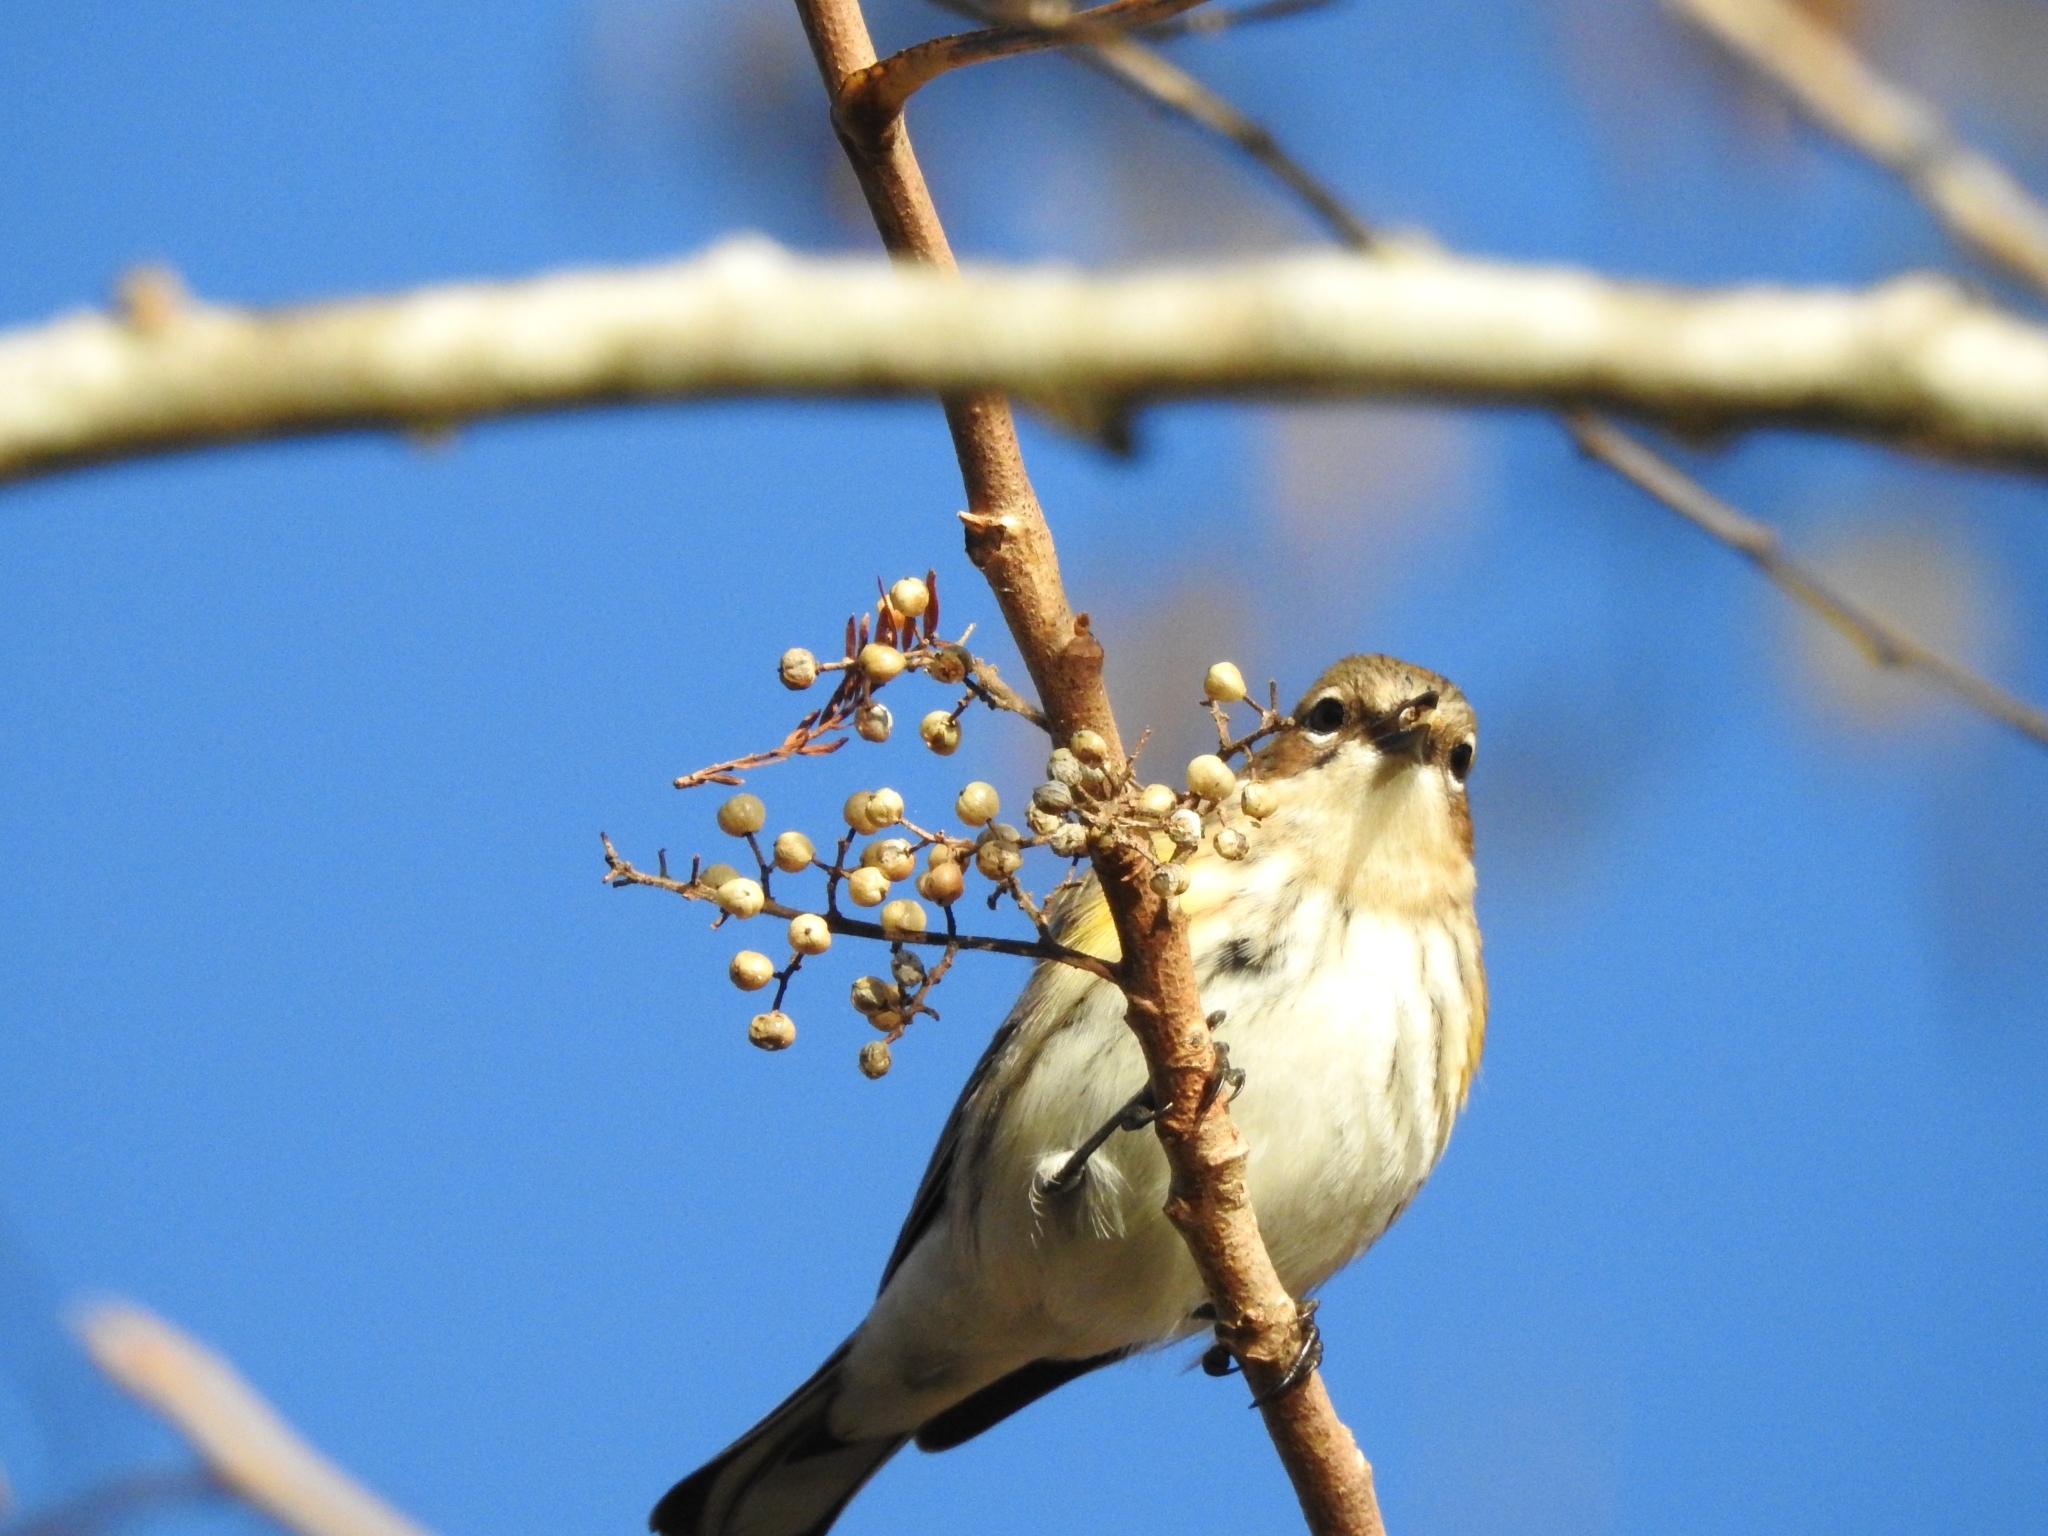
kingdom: Animalia
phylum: Chordata
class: Aves
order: Passeriformes
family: Parulidae
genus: Setophaga
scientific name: Setophaga coronata
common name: Myrtle warbler
